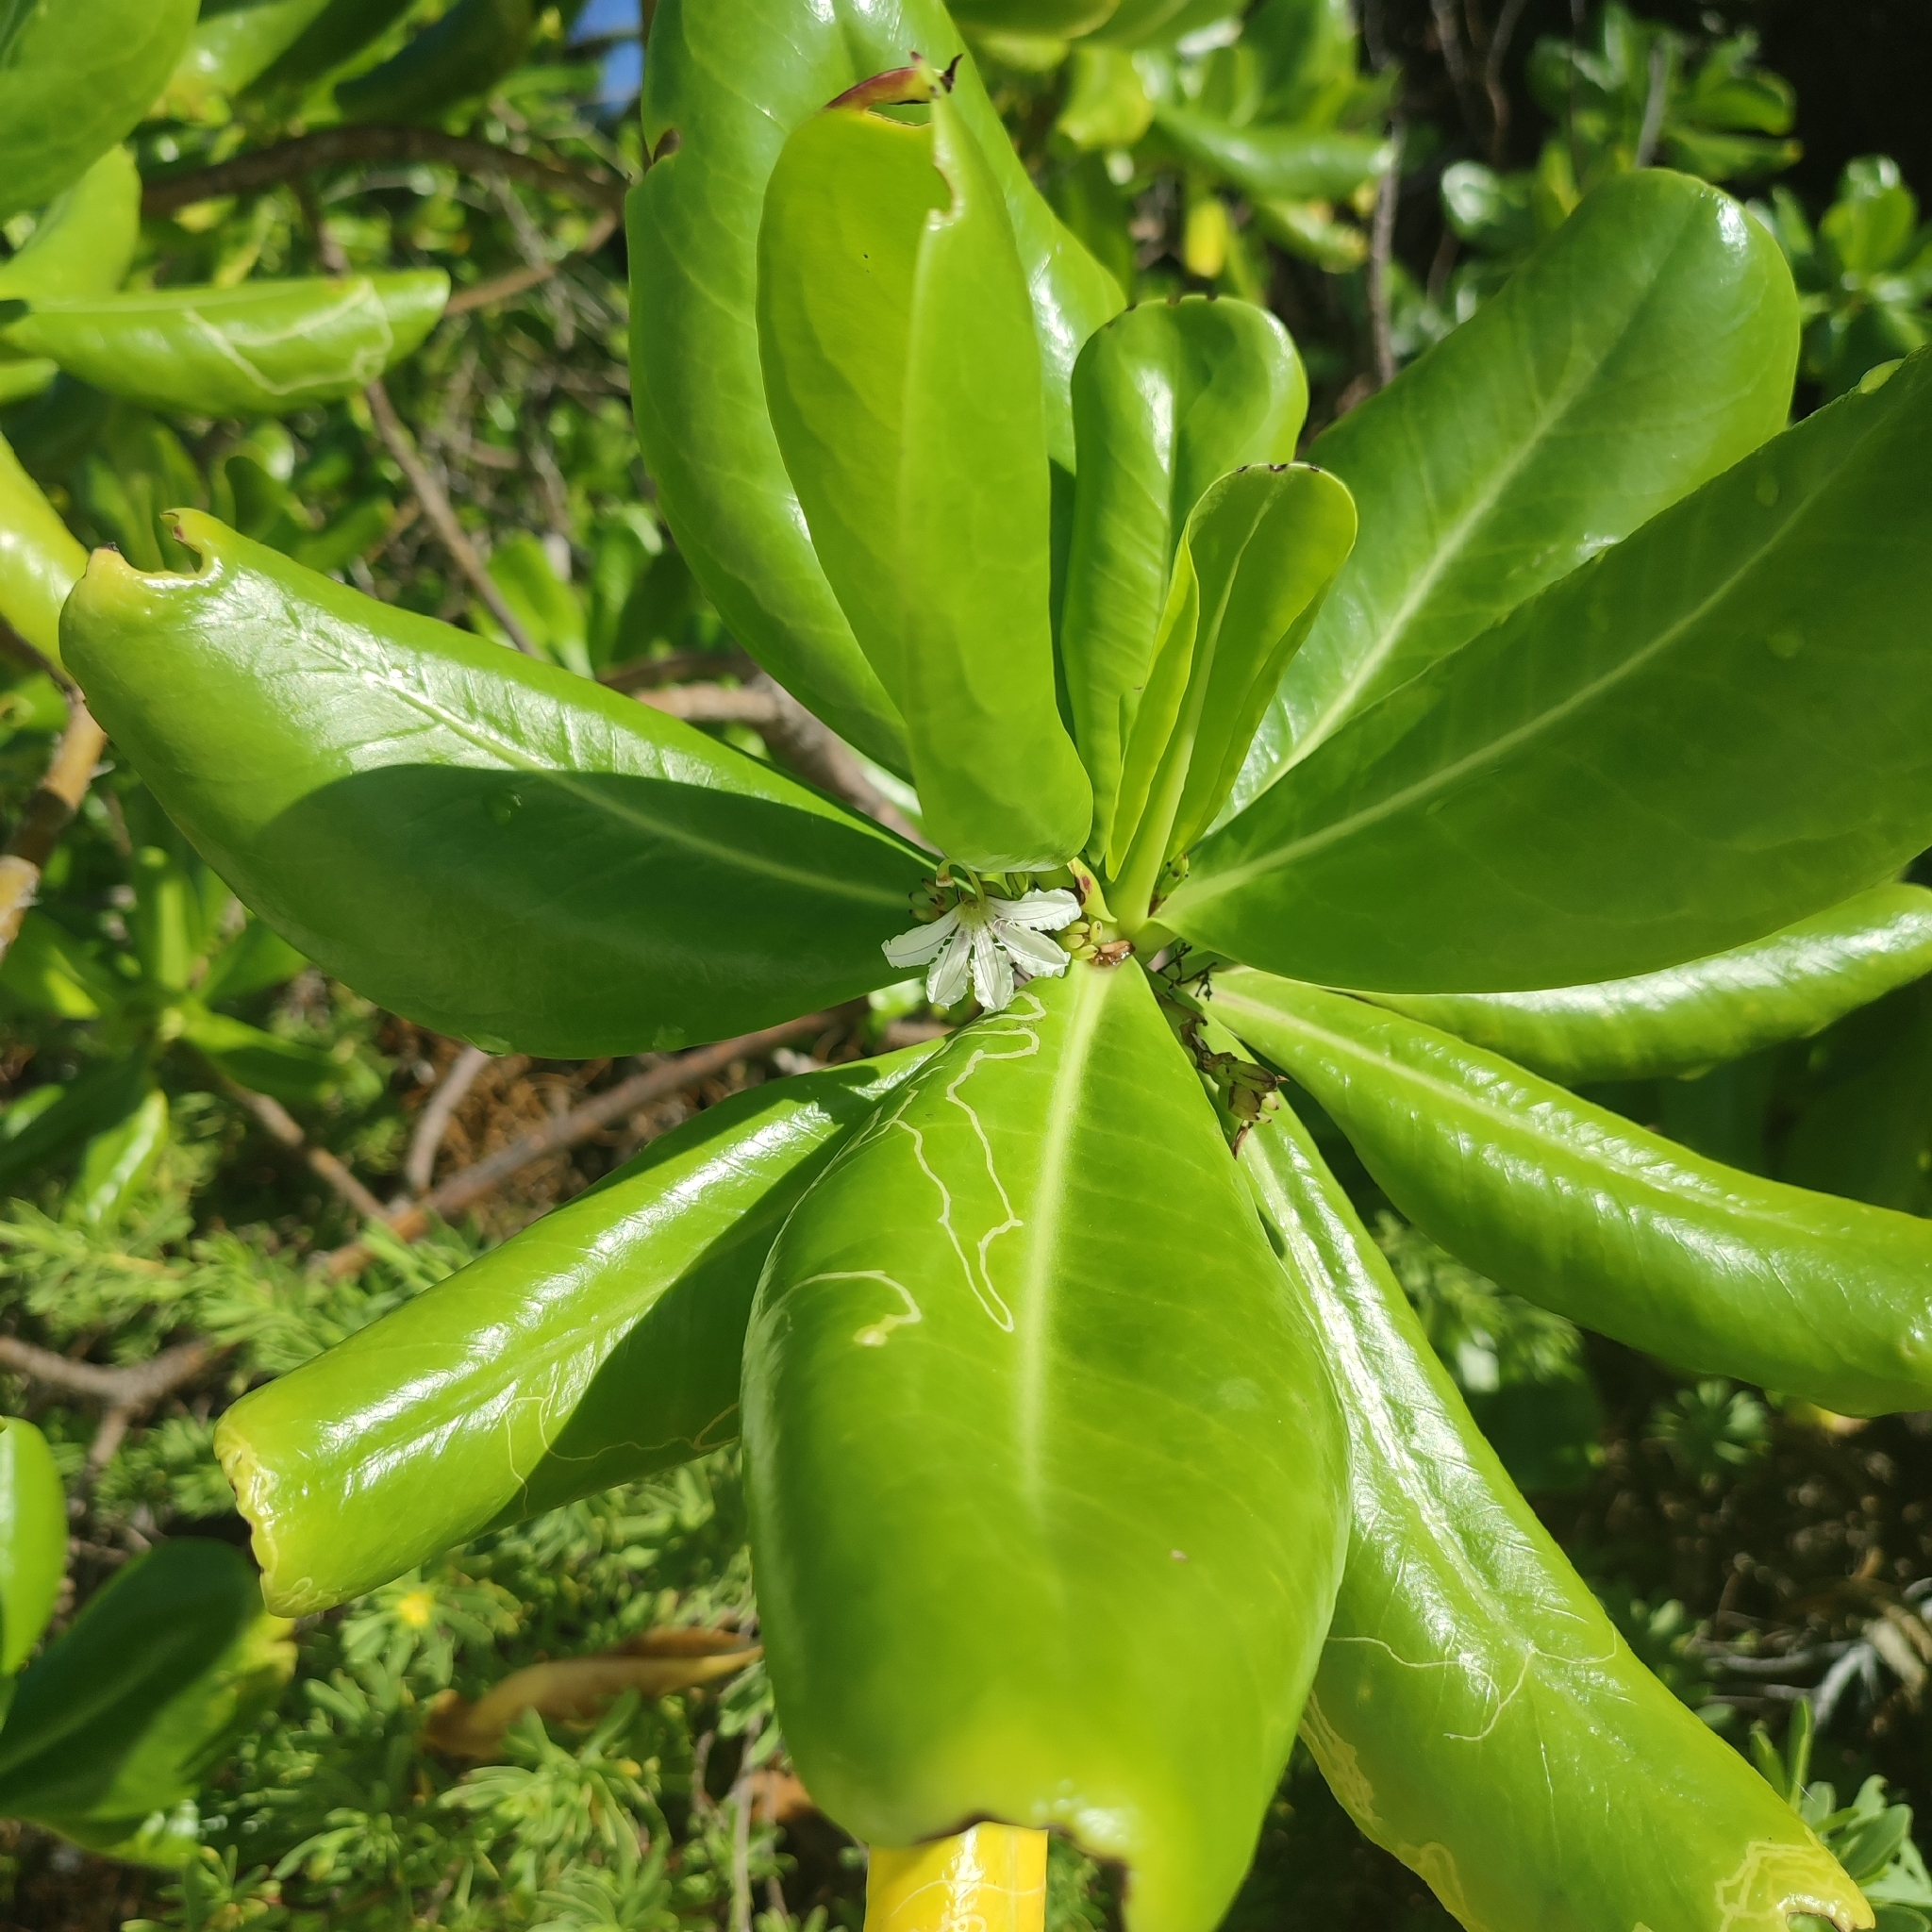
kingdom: Plantae
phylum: Tracheophyta
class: Magnoliopsida
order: Asterales
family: Goodeniaceae
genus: Scaevola
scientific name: Scaevola taccada
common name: Sea lettucetree
